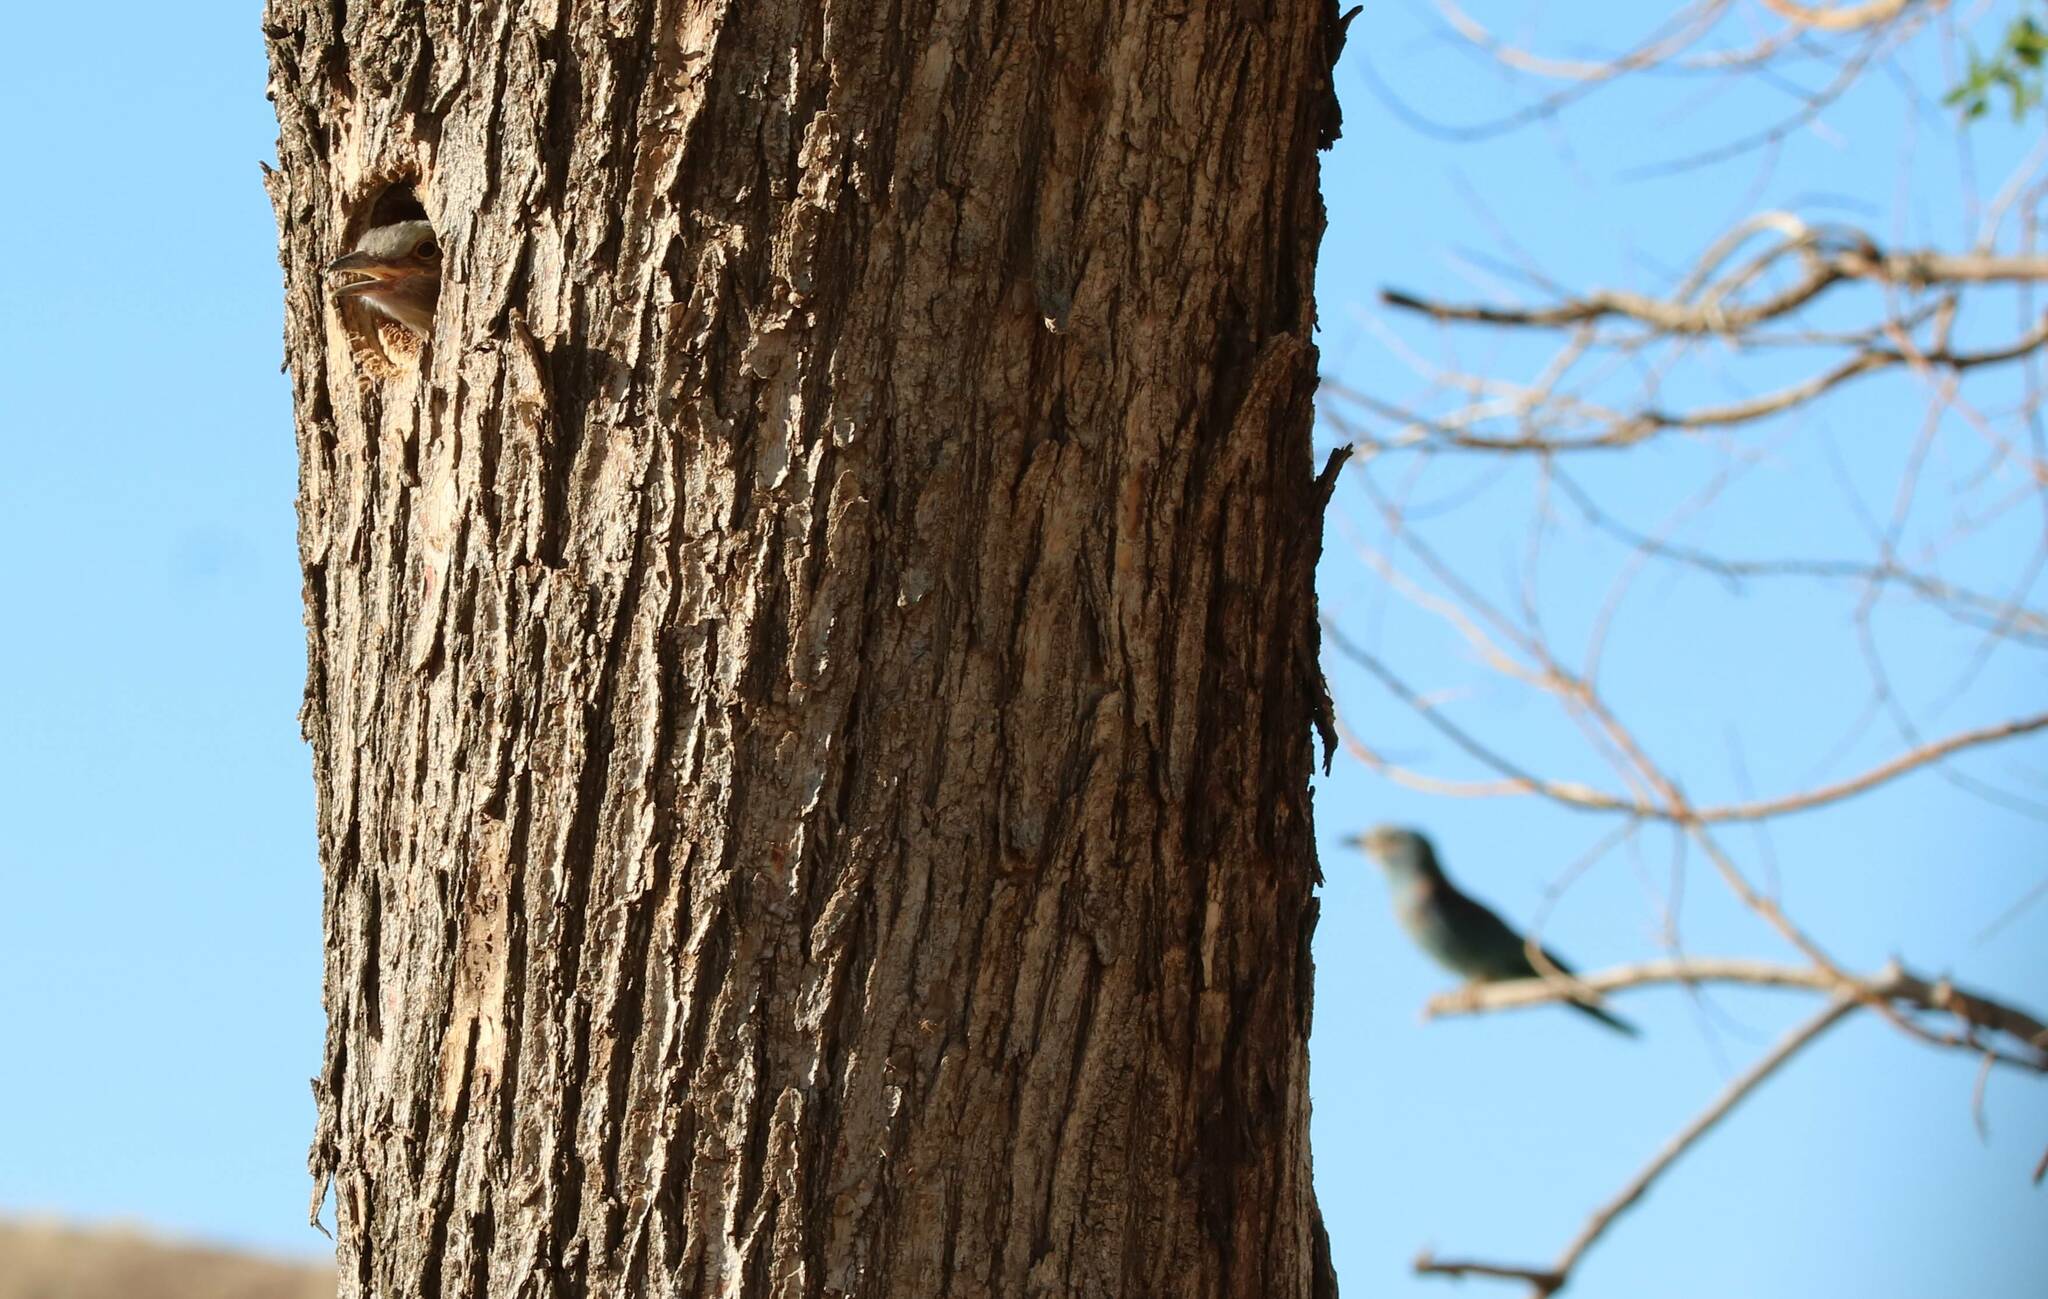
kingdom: Animalia
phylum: Chordata
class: Aves
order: Coraciiformes
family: Coraciidae
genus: Coracias
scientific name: Coracias garrulus
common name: European roller
